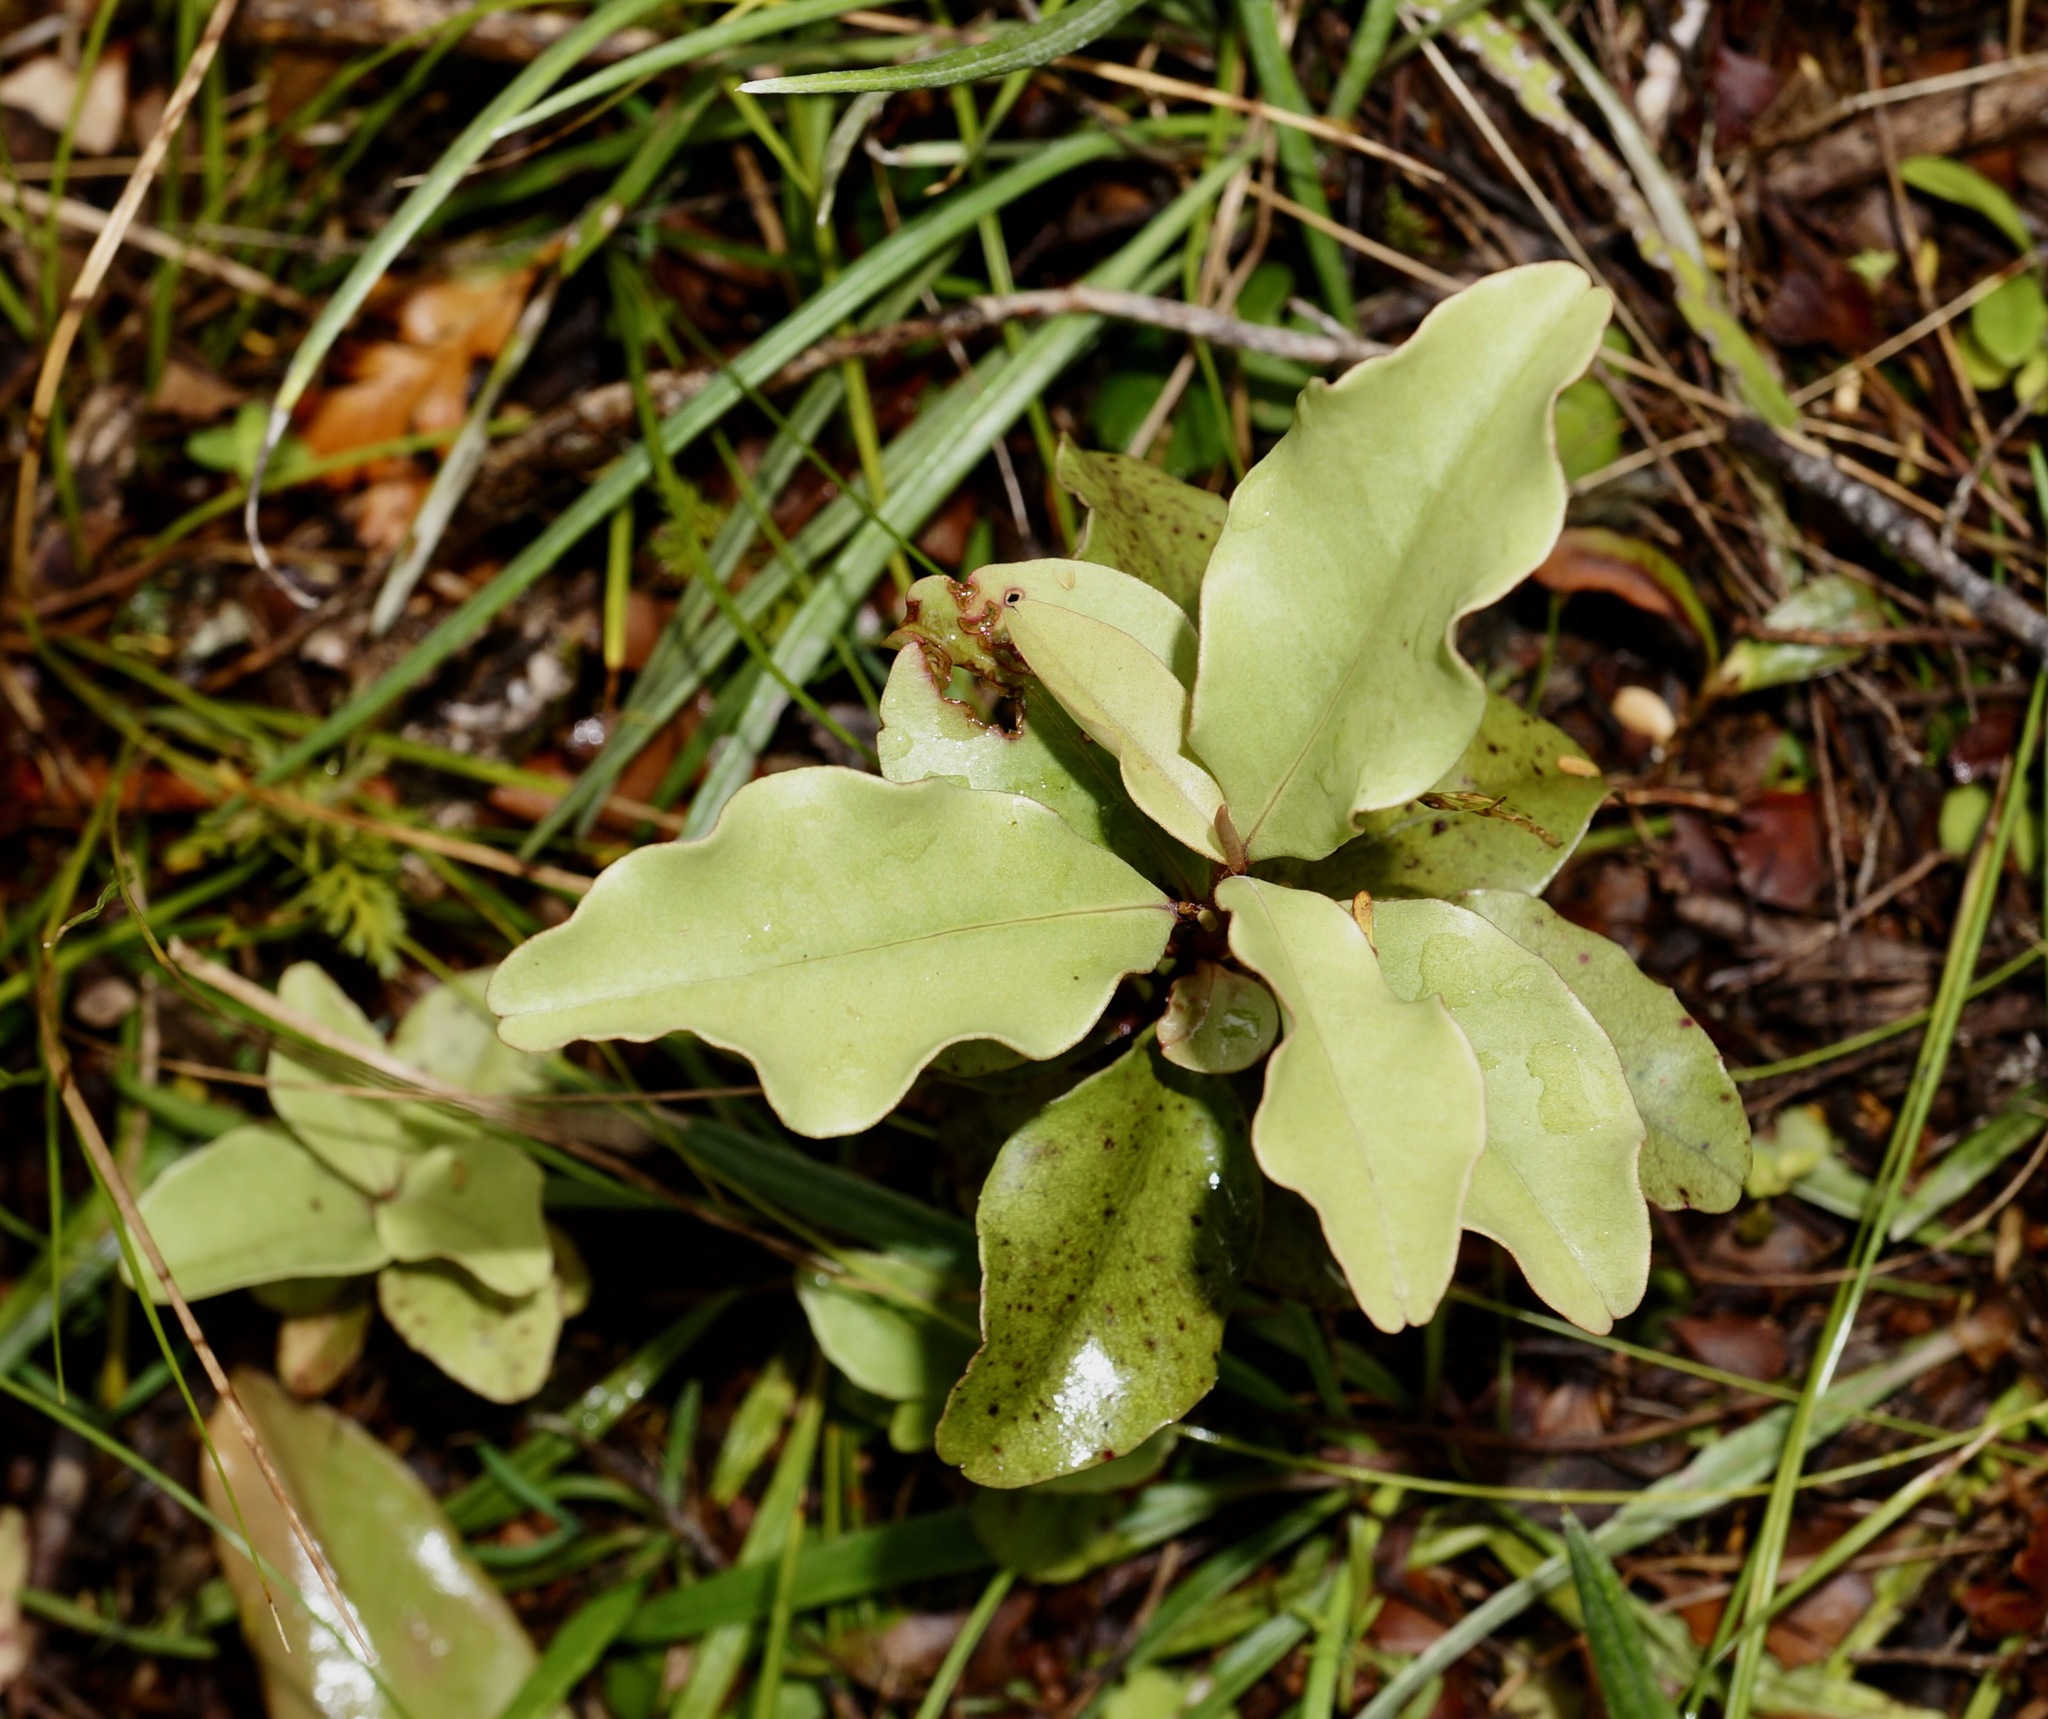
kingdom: Plantae
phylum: Tracheophyta
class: Magnoliopsida
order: Ericales
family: Primulaceae
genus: Myrsine
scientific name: Myrsine australis
